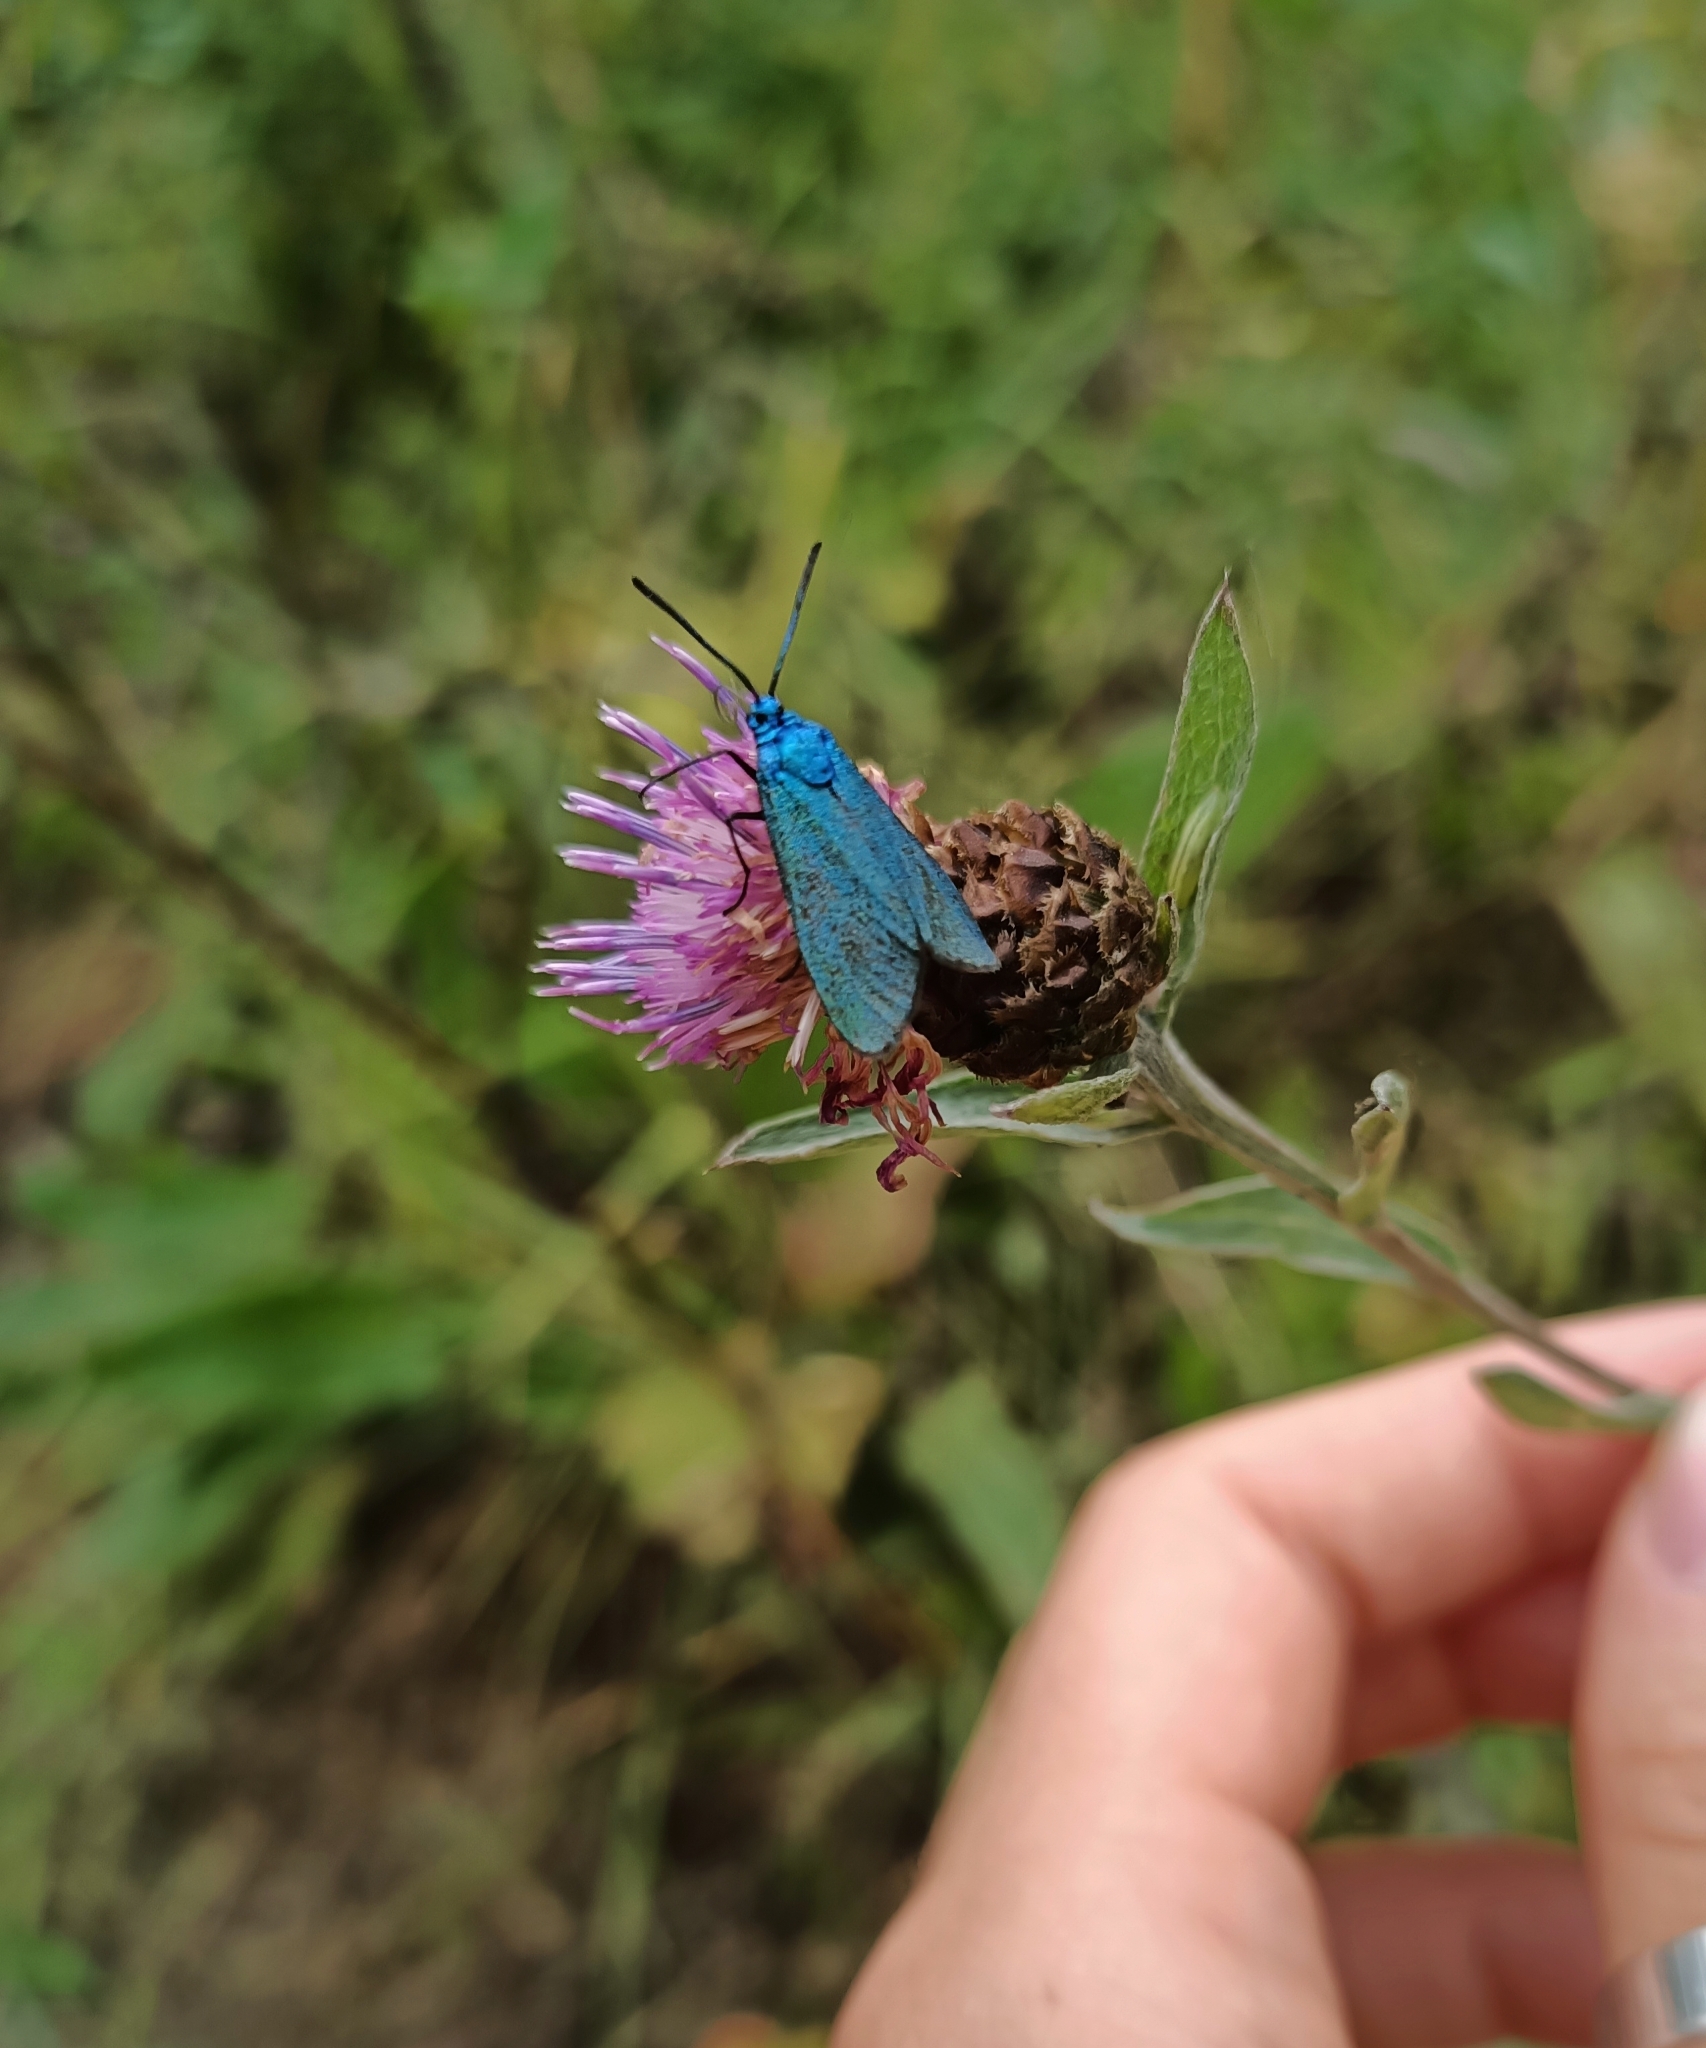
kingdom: Animalia
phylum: Arthropoda
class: Insecta
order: Lepidoptera
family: Zygaenidae
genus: Adscita
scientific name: Adscita statices
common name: Forester
